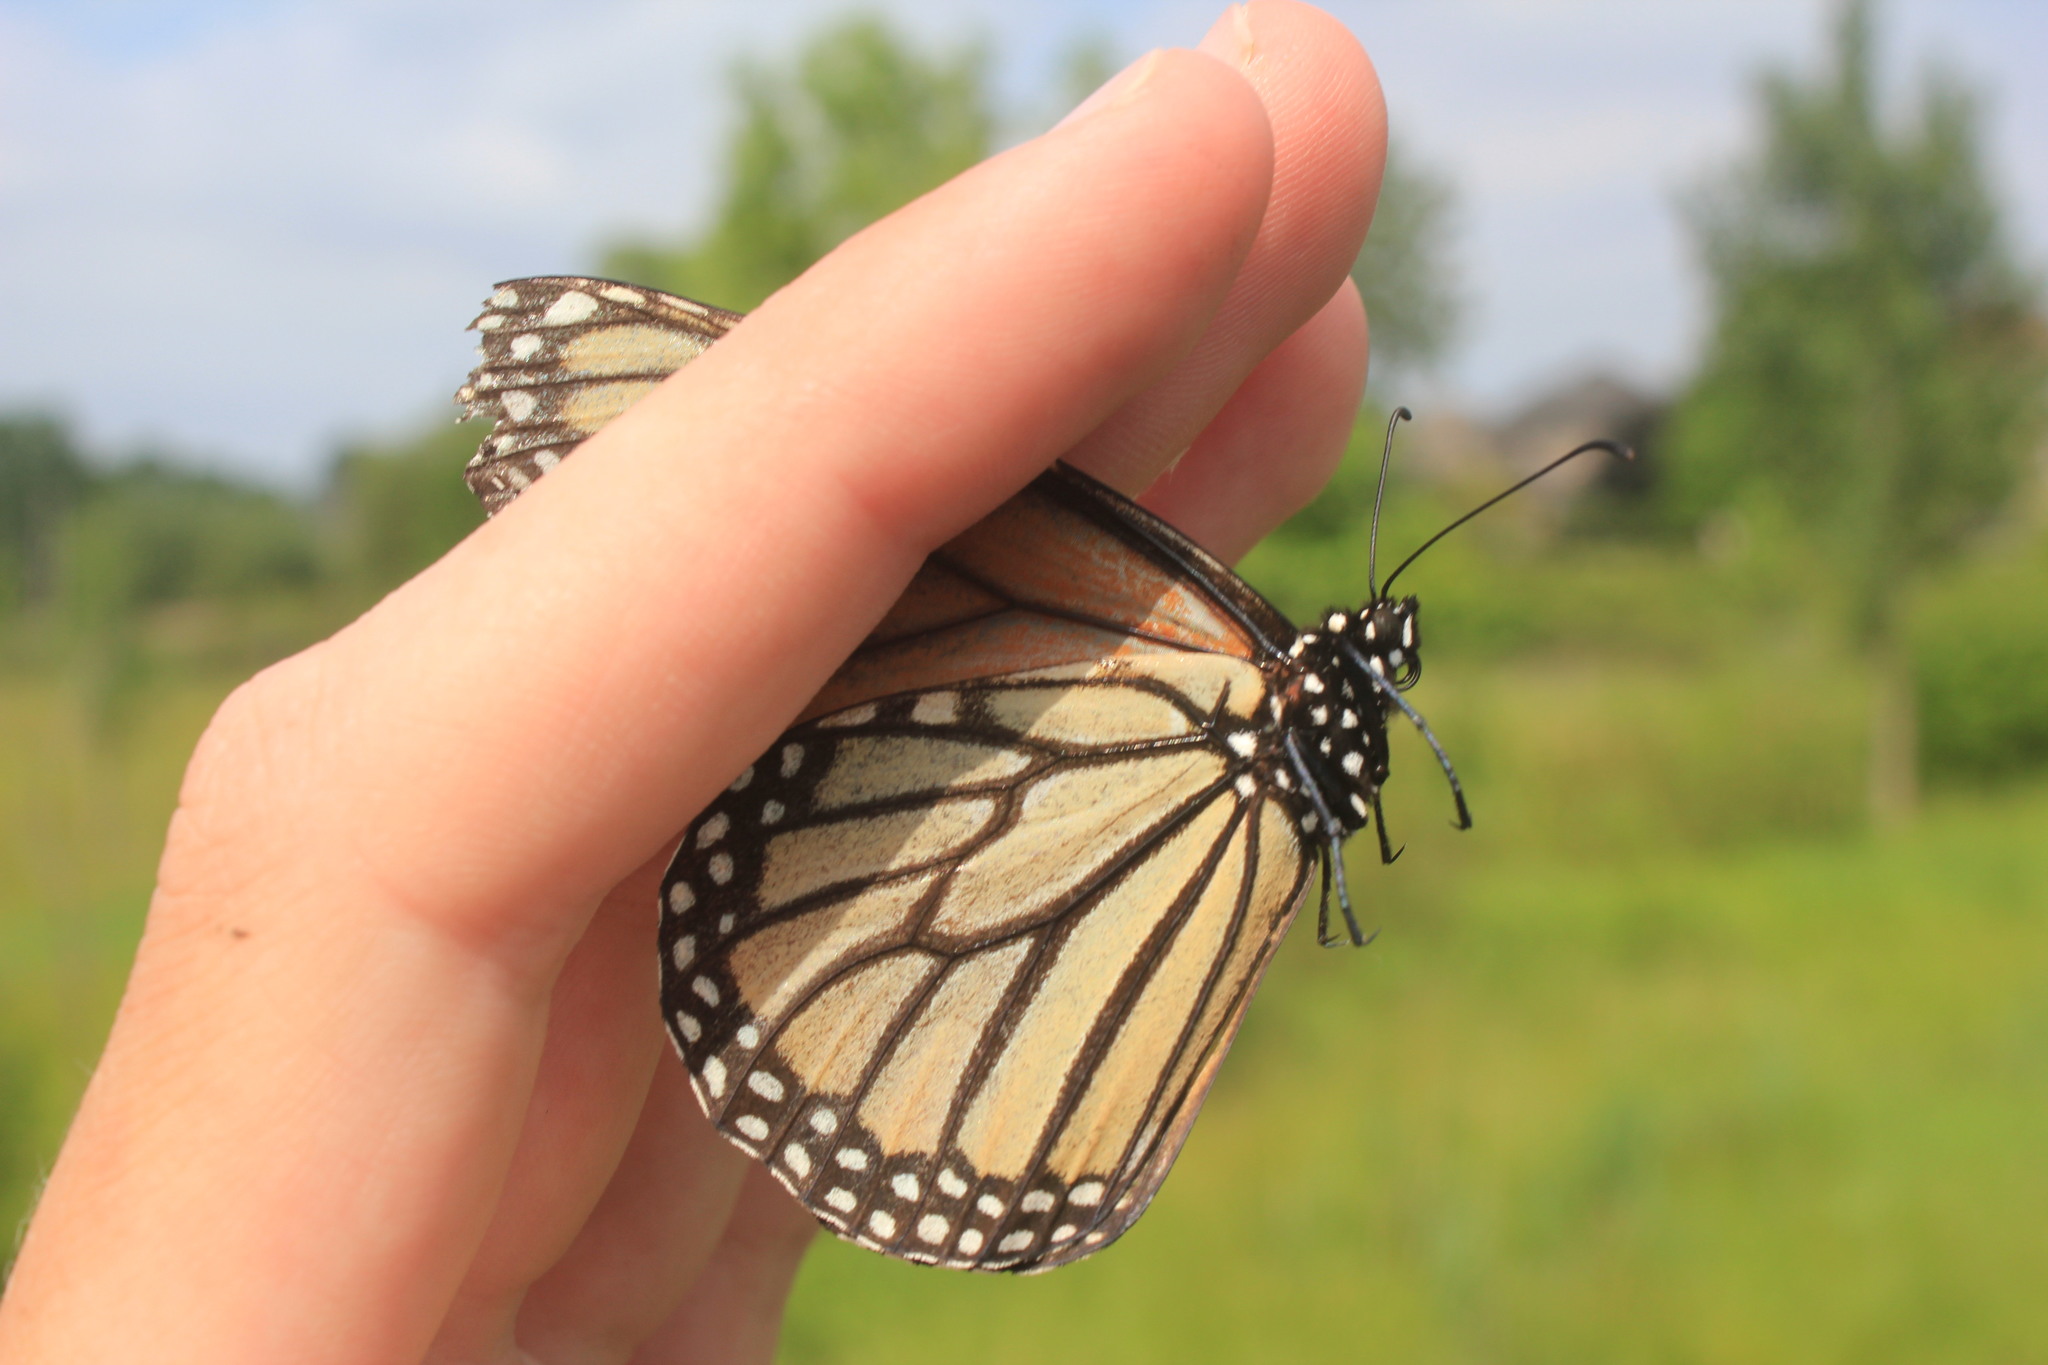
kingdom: Animalia
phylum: Arthropoda
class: Insecta
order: Lepidoptera
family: Nymphalidae
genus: Danaus
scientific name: Danaus plexippus
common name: Monarch
